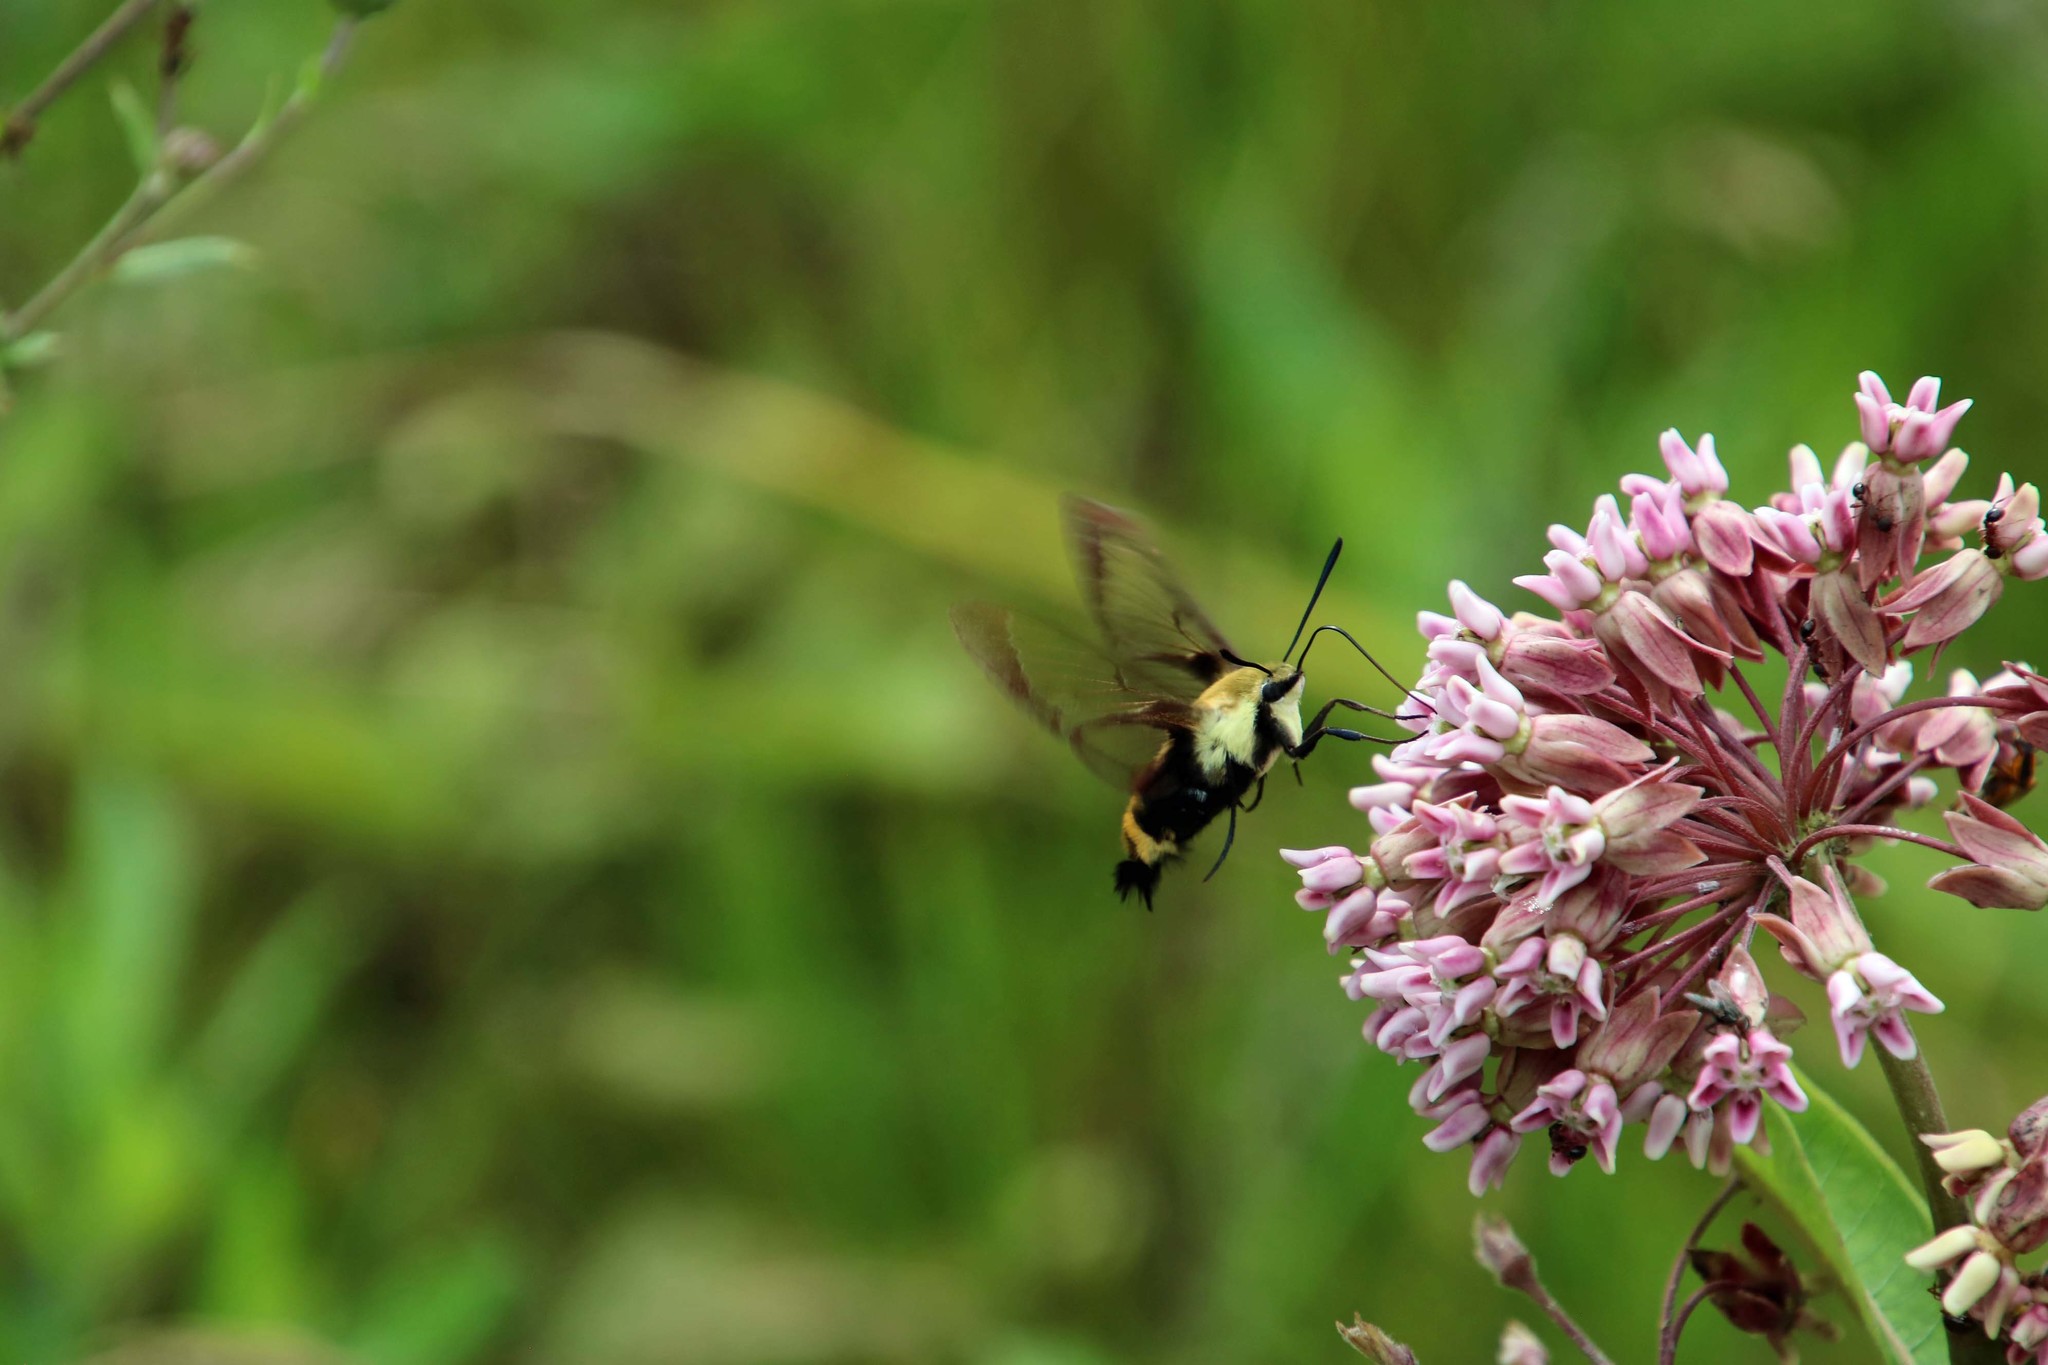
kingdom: Animalia
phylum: Arthropoda
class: Insecta
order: Lepidoptera
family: Sphingidae
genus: Hemaris
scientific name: Hemaris diffinis
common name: Bumblebee moth
